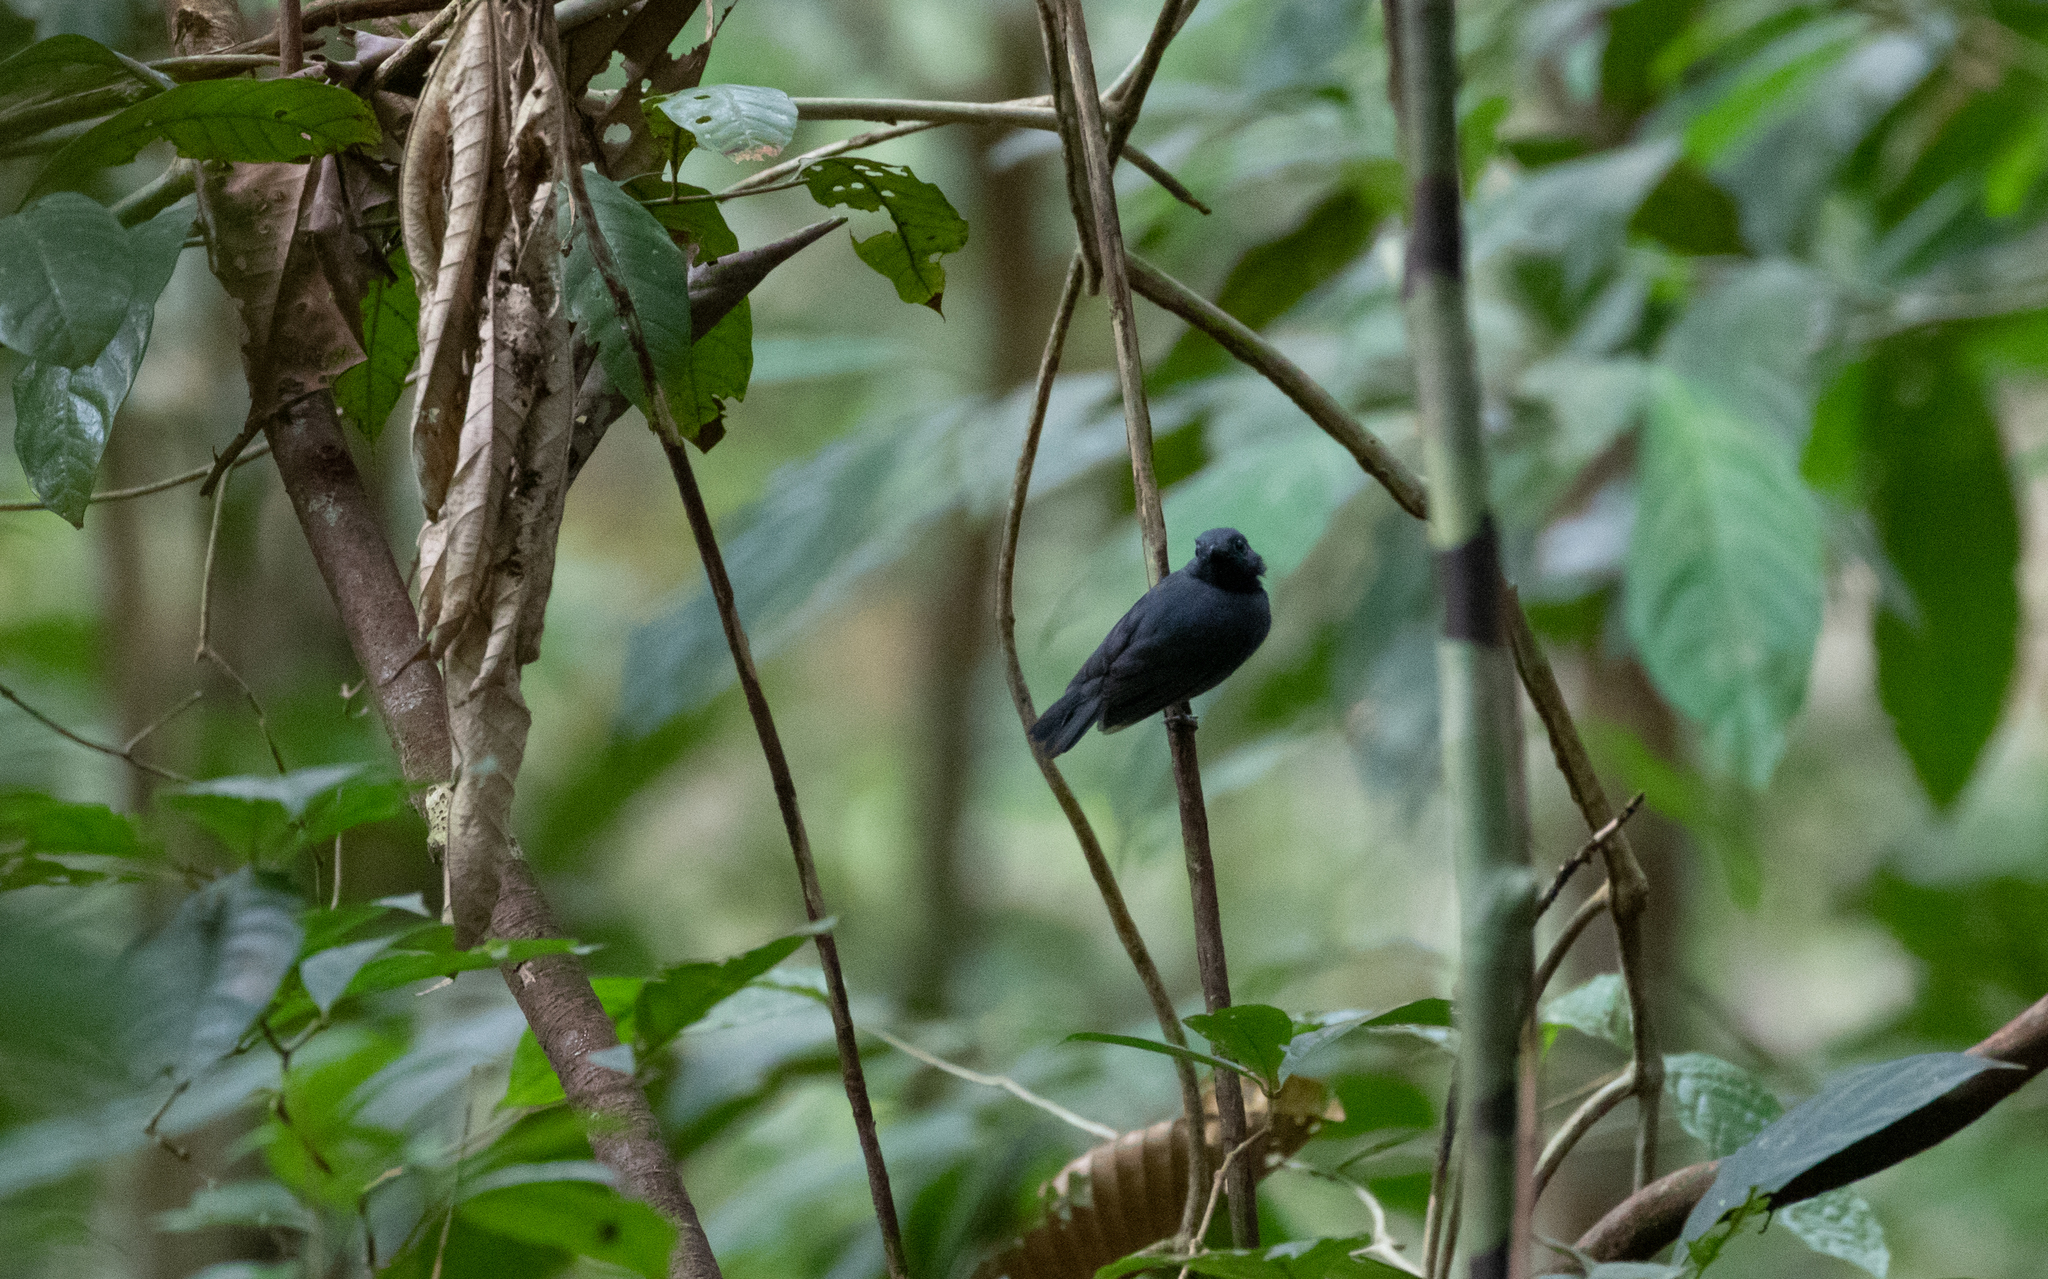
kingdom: Animalia
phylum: Chordata
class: Aves
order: Passeriformes
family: Thamnophilidae
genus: Thamnomanes
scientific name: Thamnomanes saturninus
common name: Saturnine antshrike
